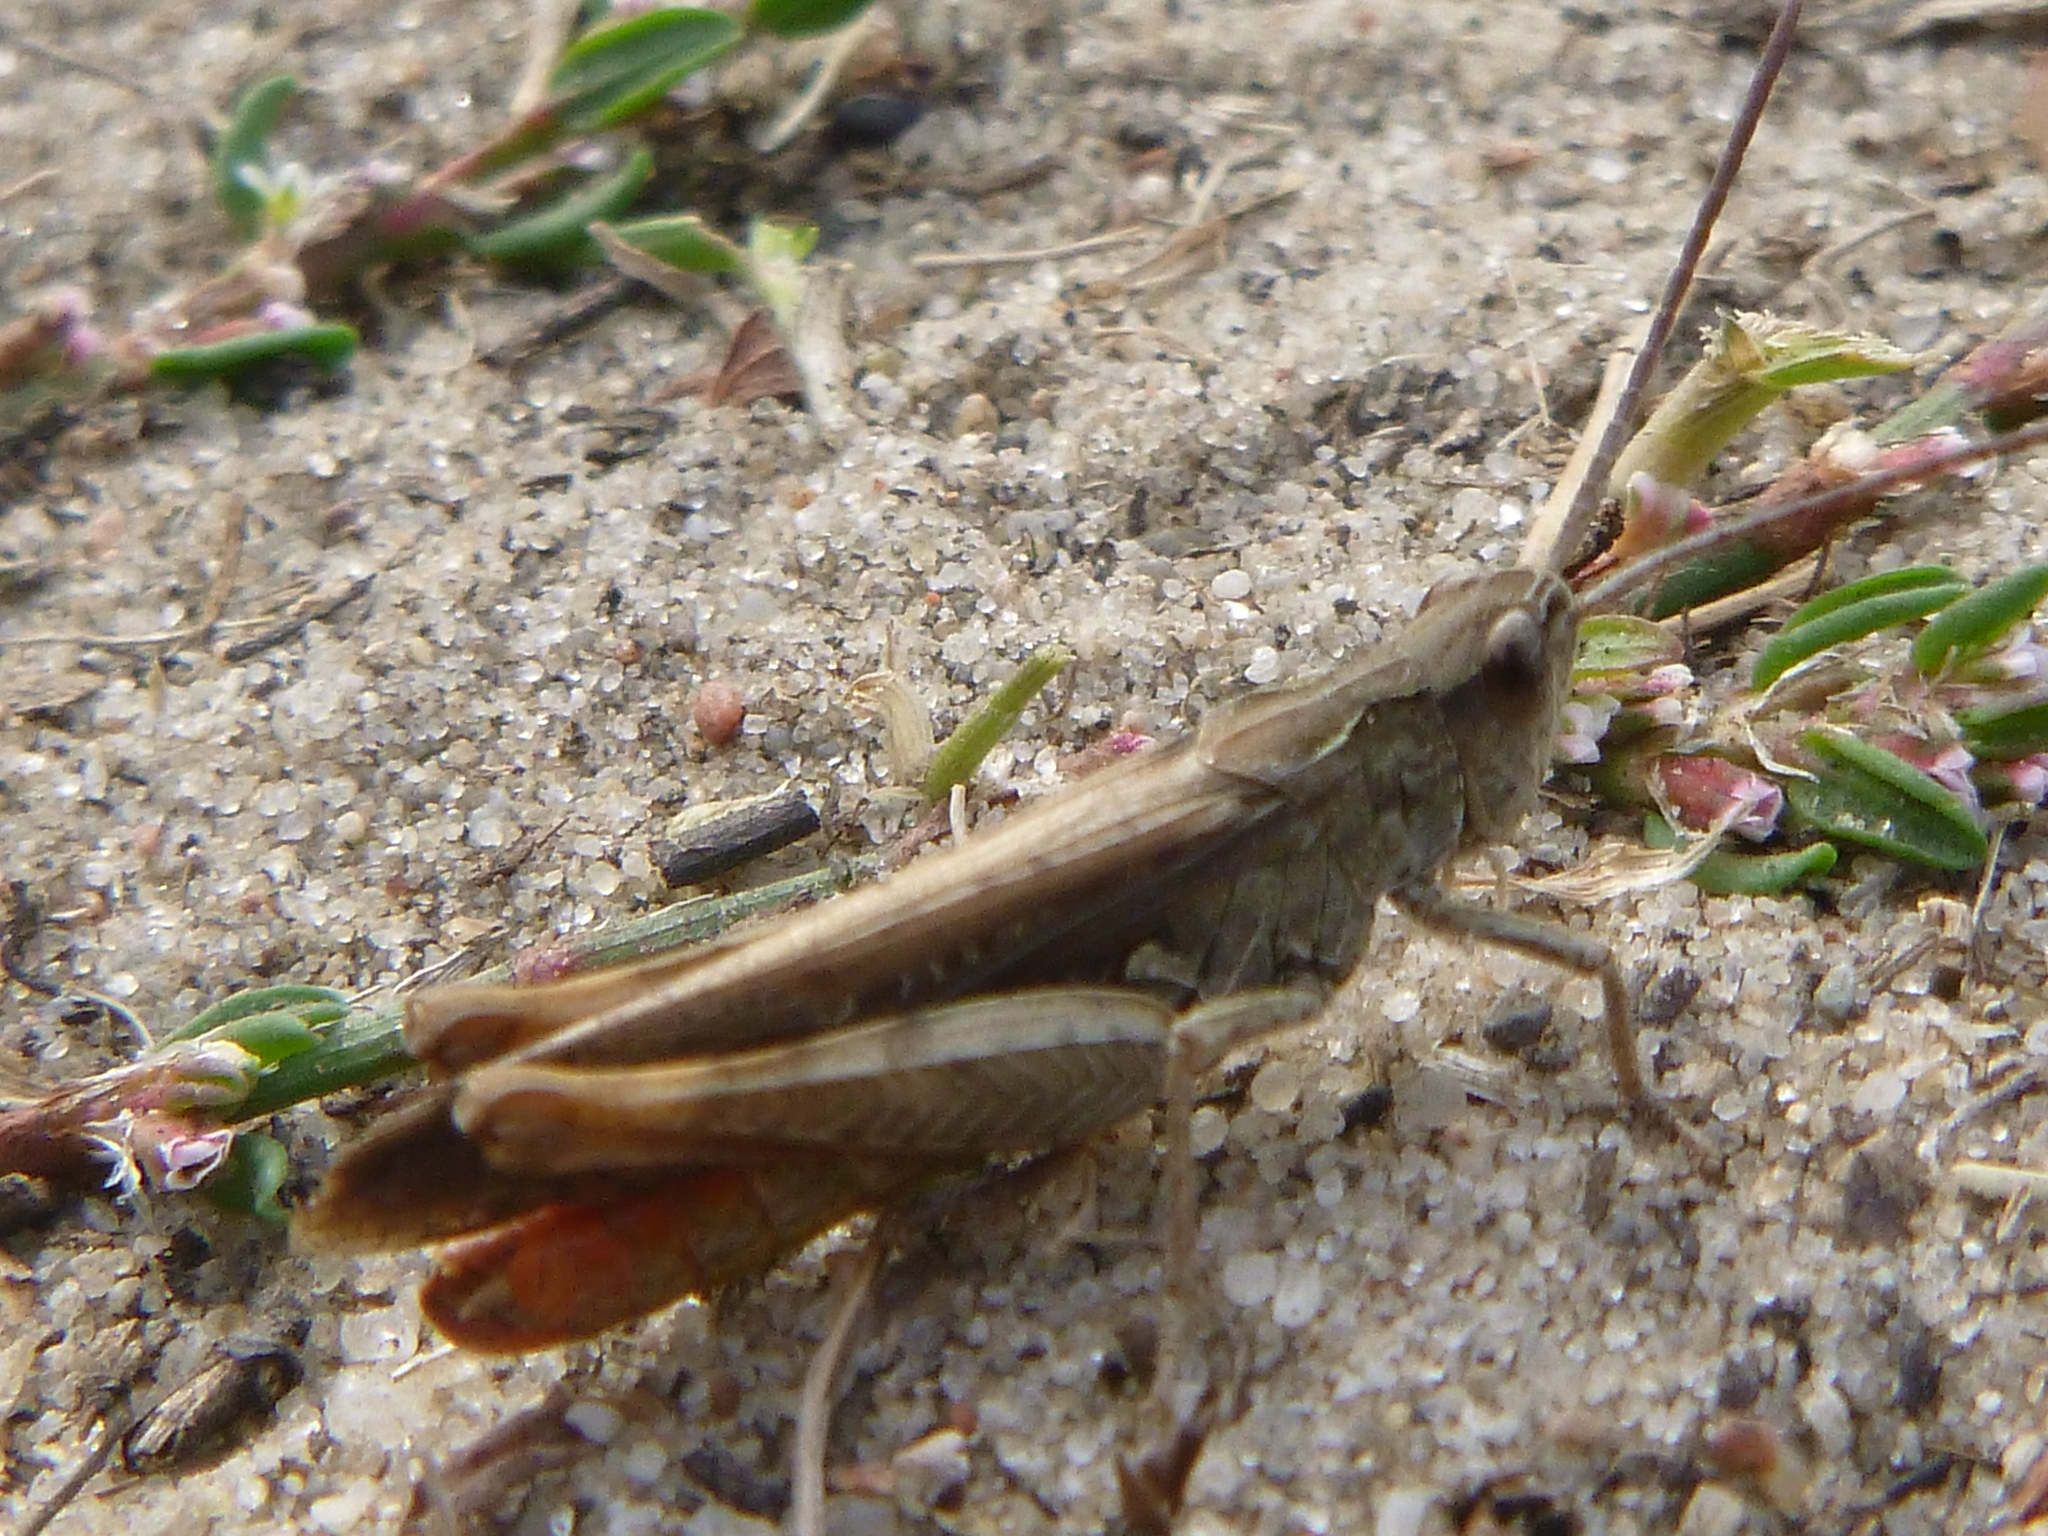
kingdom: Animalia
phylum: Arthropoda
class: Insecta
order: Orthoptera
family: Acrididae
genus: Chorthippus
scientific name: Chorthippus brunneus
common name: Field grasshopper
